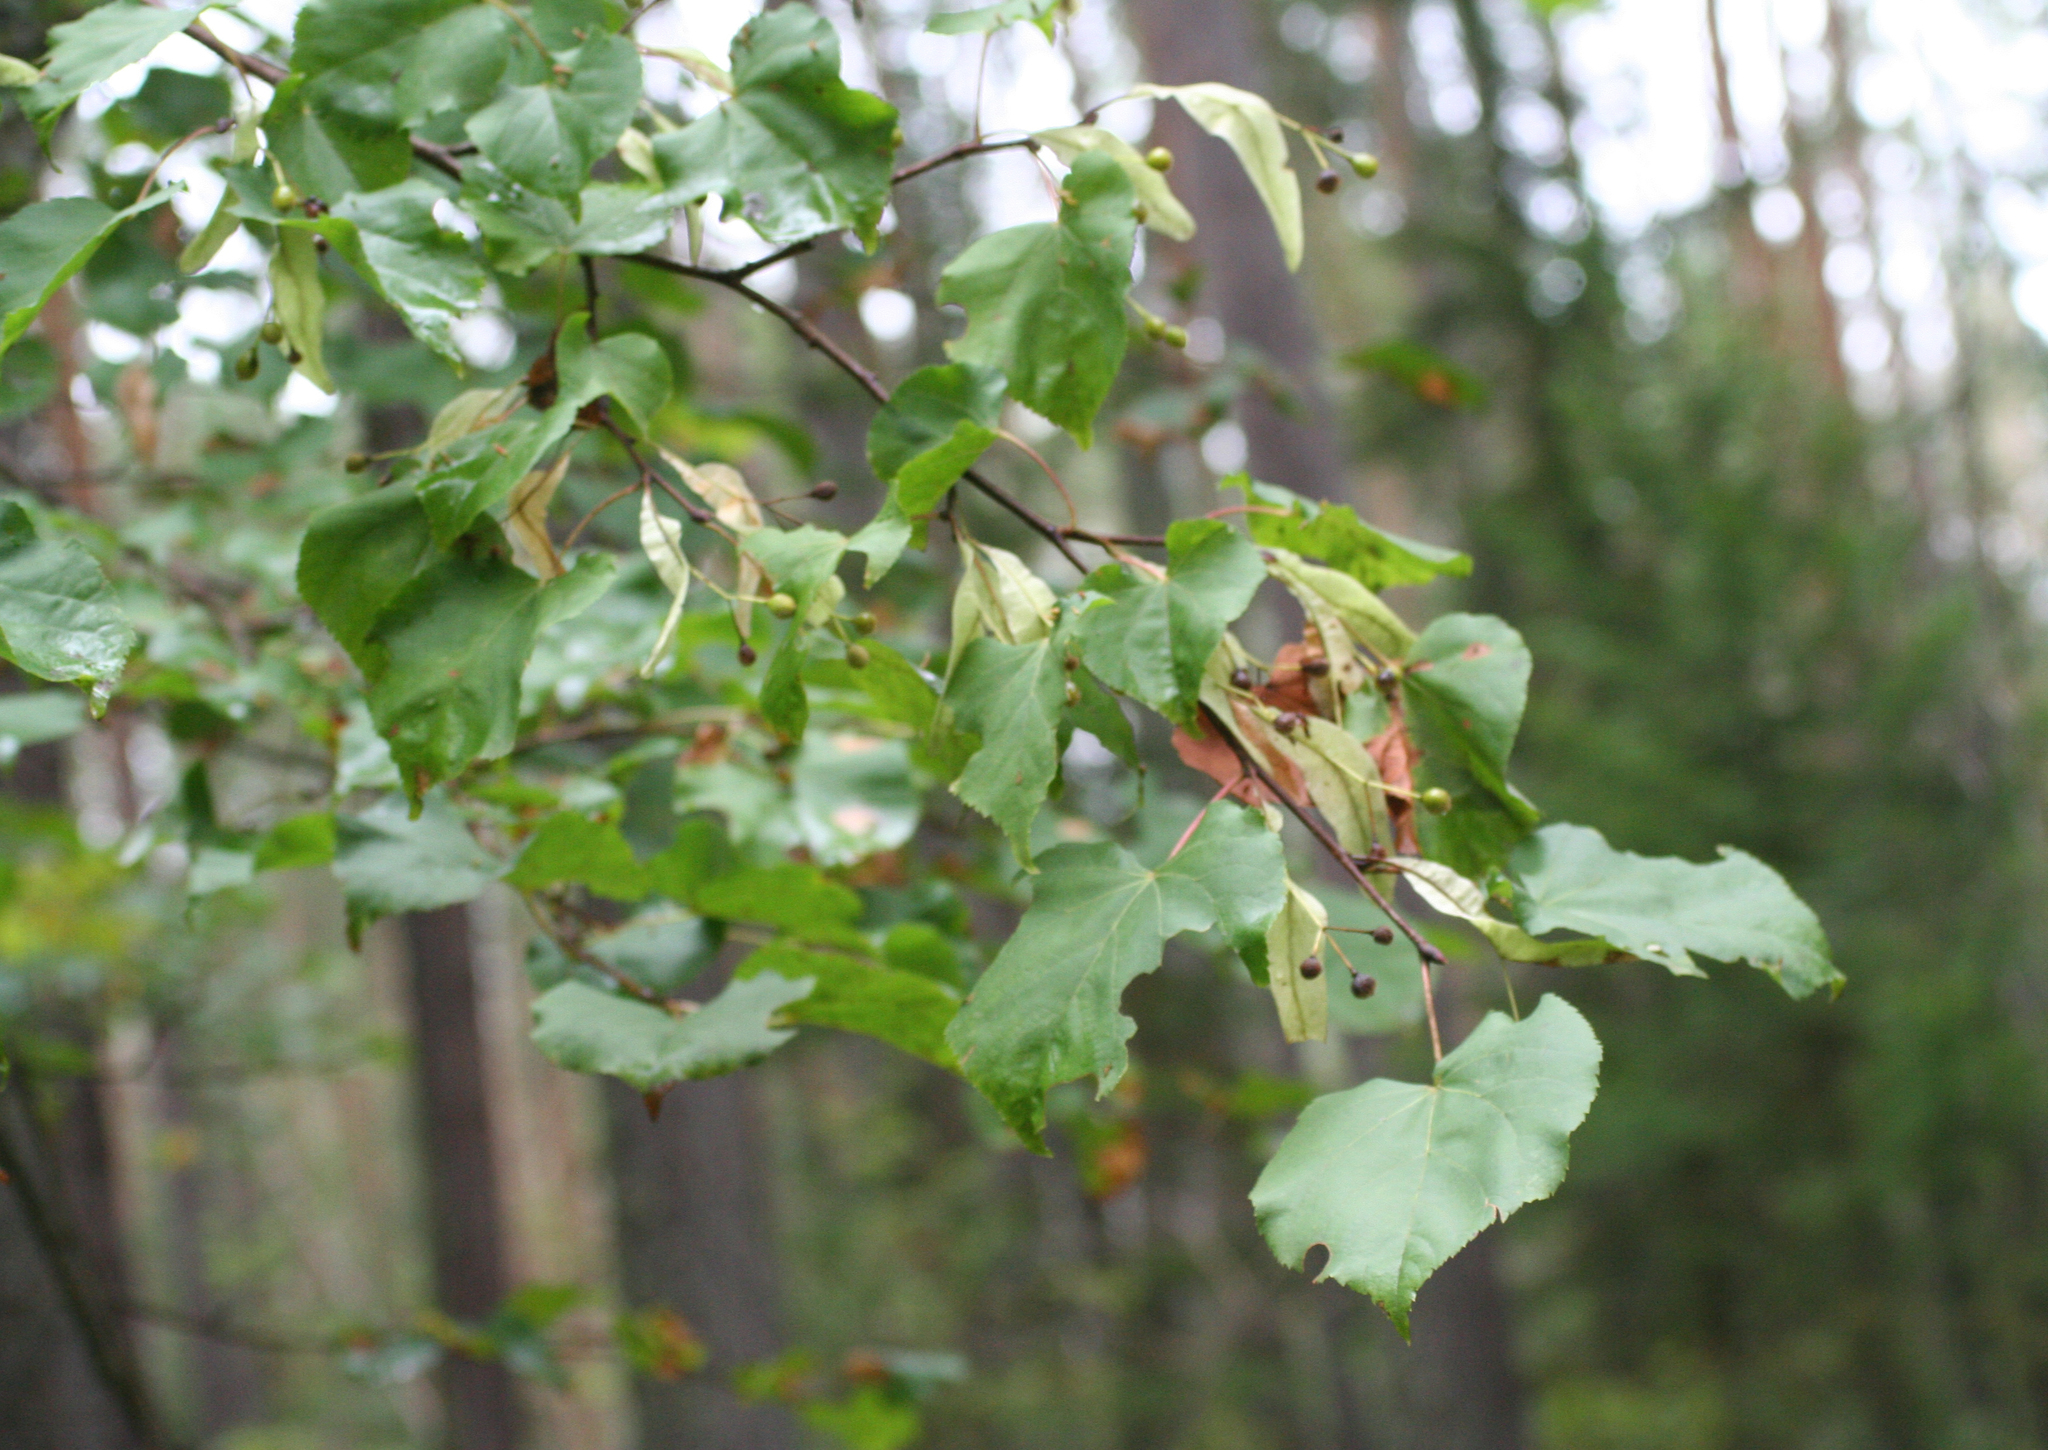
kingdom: Plantae
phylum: Tracheophyta
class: Magnoliopsida
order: Malvales
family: Malvaceae
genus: Tilia
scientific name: Tilia cordata
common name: Small-leaved lime
